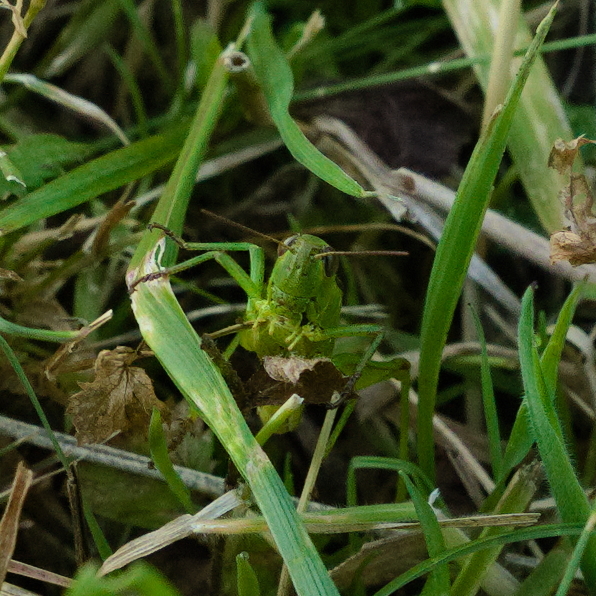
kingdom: Animalia
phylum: Arthropoda
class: Insecta
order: Orthoptera
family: Acrididae
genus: Mecostethus
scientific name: Mecostethus parapleurus
